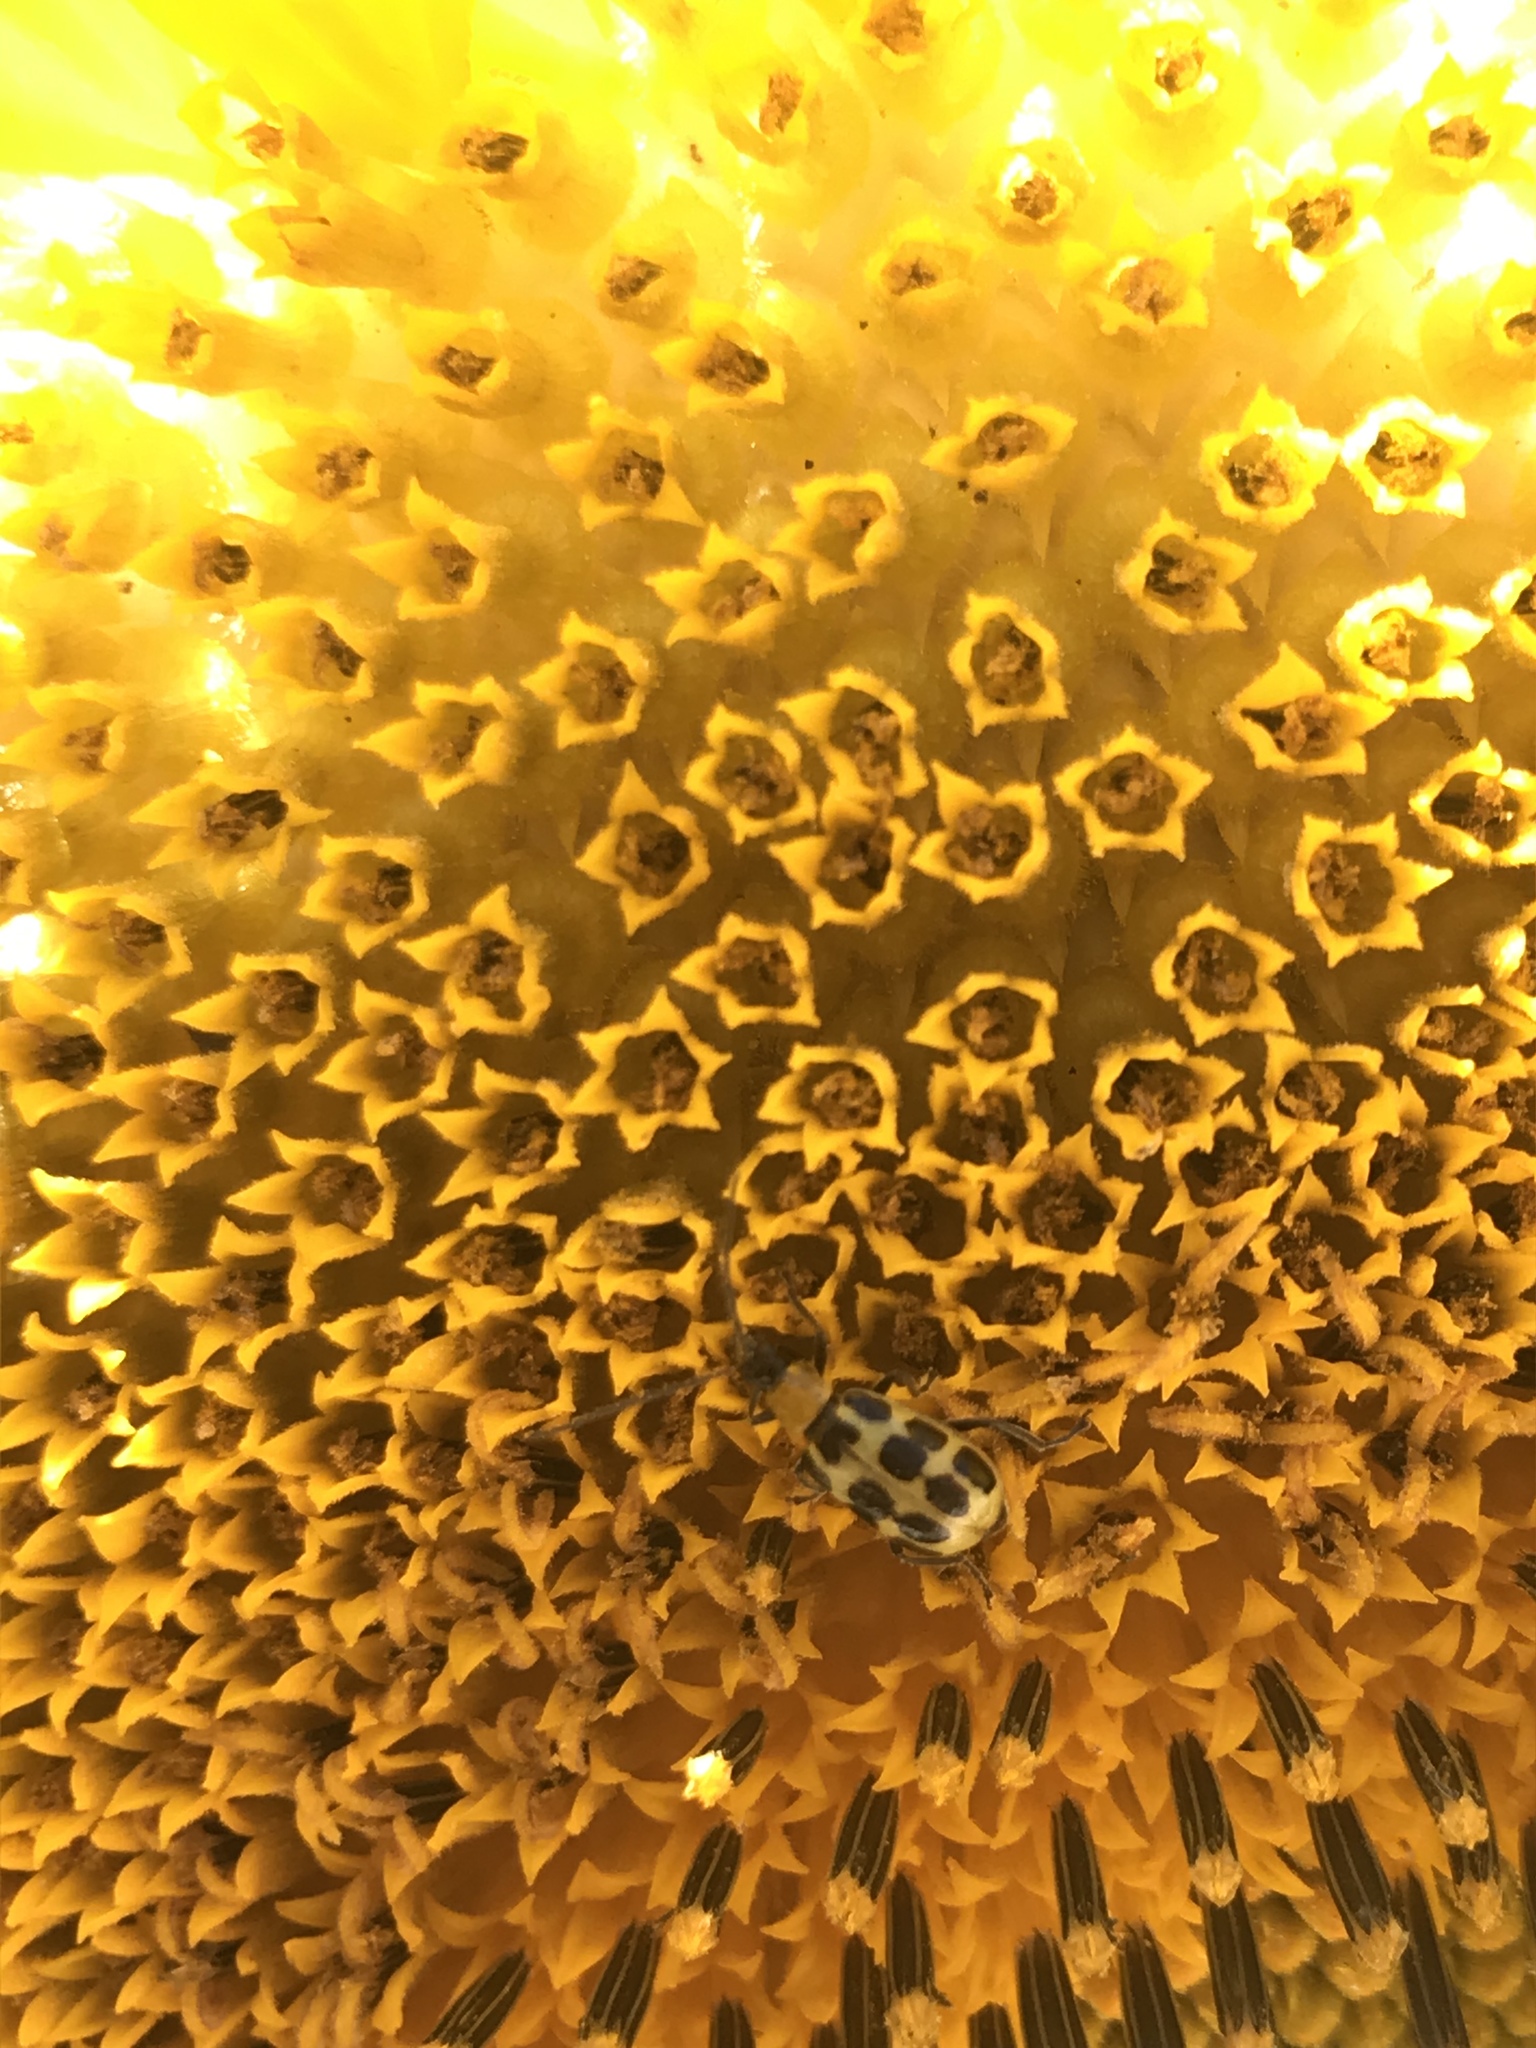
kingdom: Animalia
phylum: Arthropoda
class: Insecta
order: Coleoptera
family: Chrysomelidae
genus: Diabrotica
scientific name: Diabrotica undecimpunctata
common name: Spotted cucumber beetle
